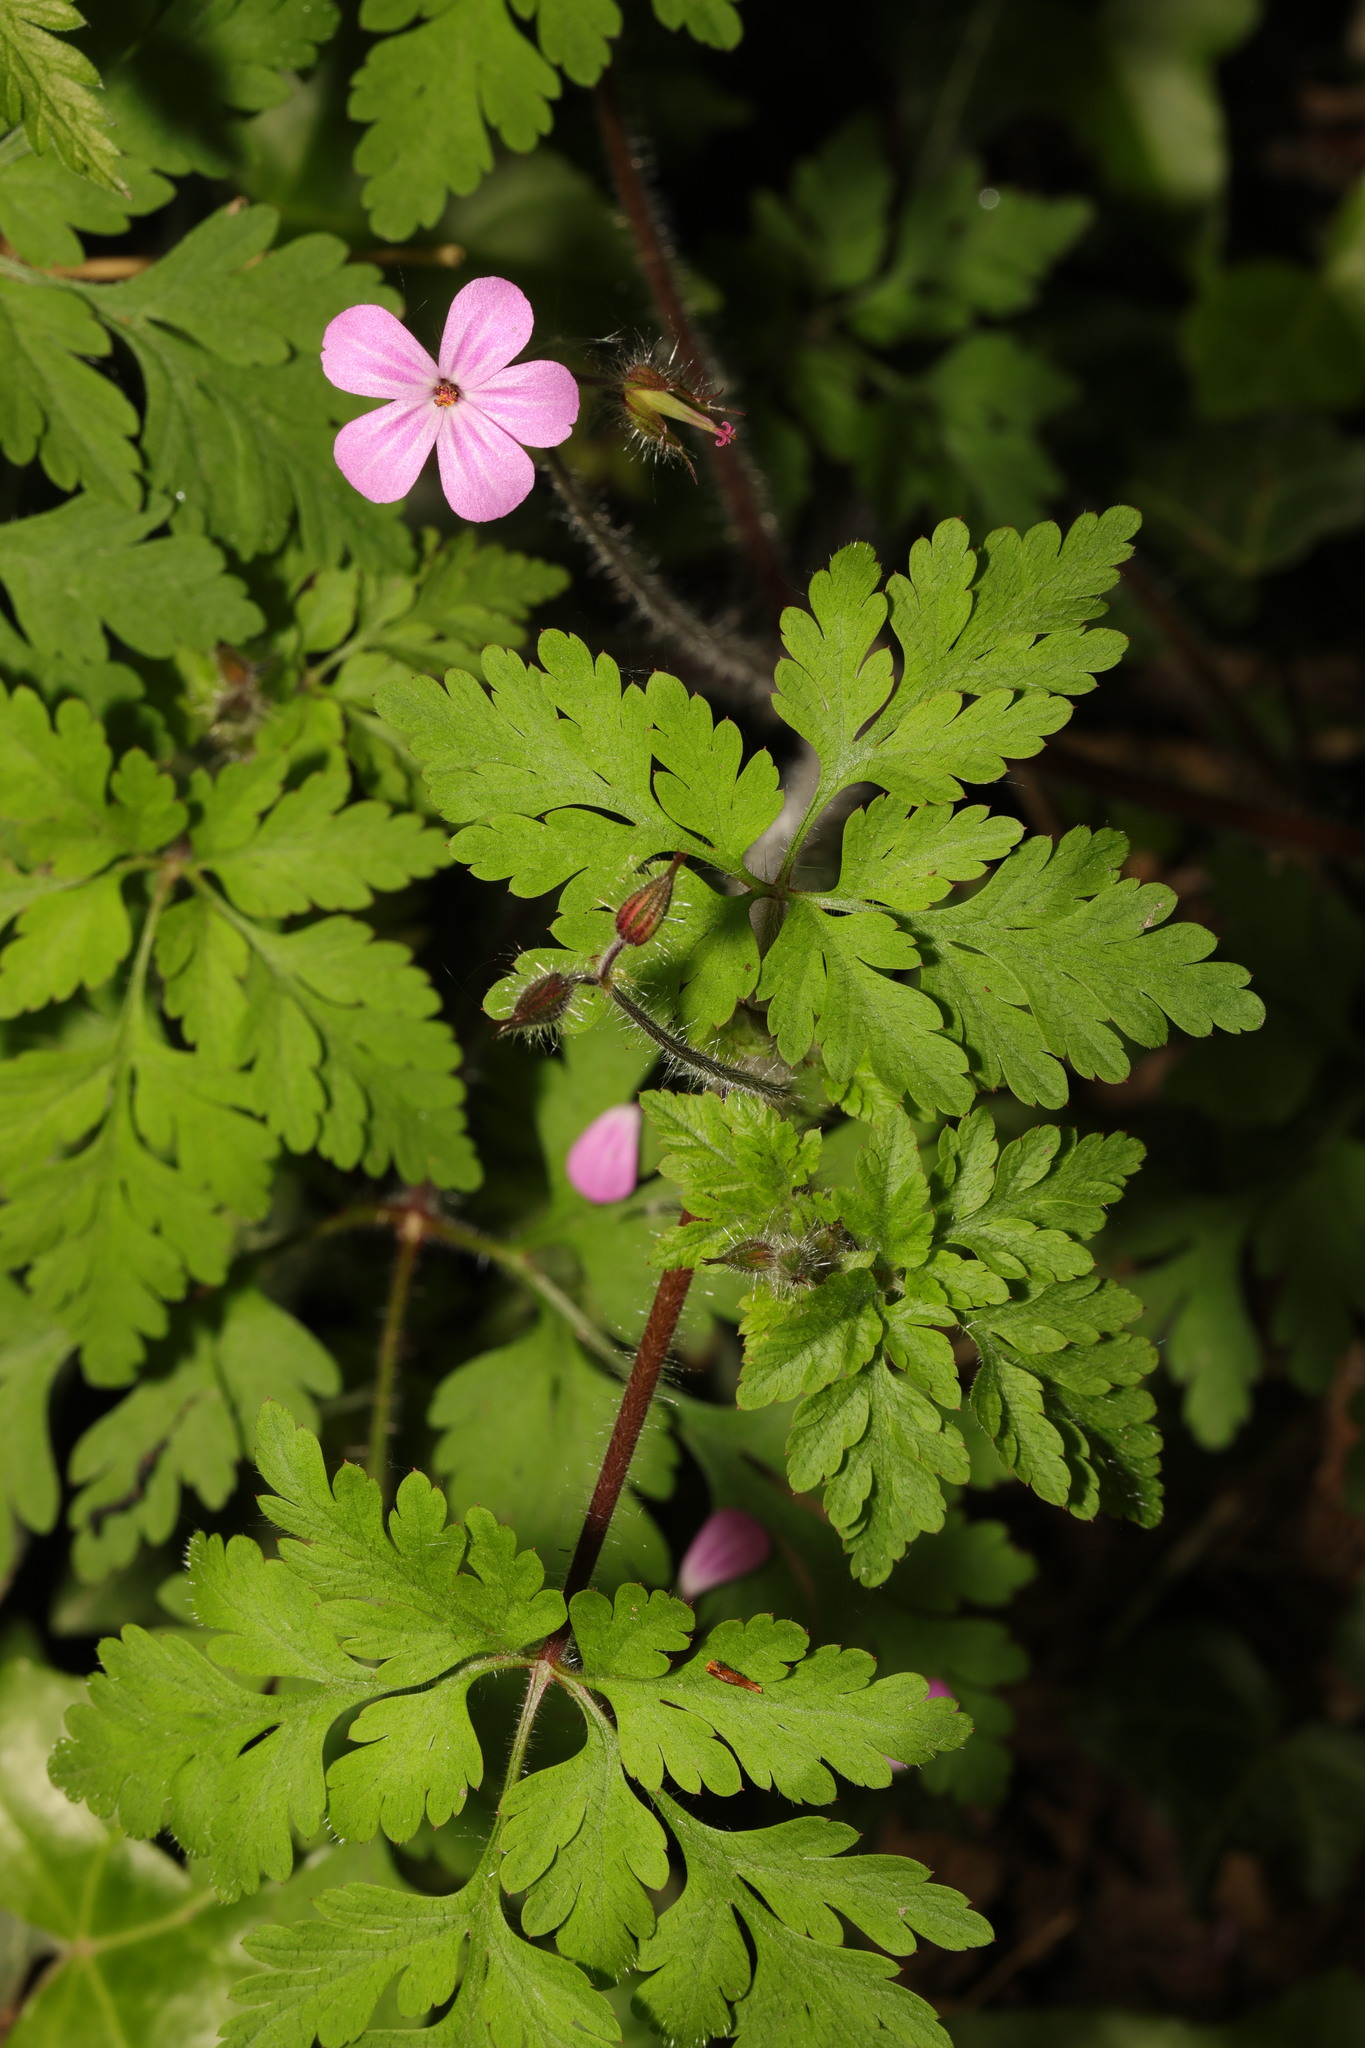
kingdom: Plantae
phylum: Tracheophyta
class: Magnoliopsida
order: Geraniales
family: Geraniaceae
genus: Geranium
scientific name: Geranium robertianum
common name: Herb-robert
